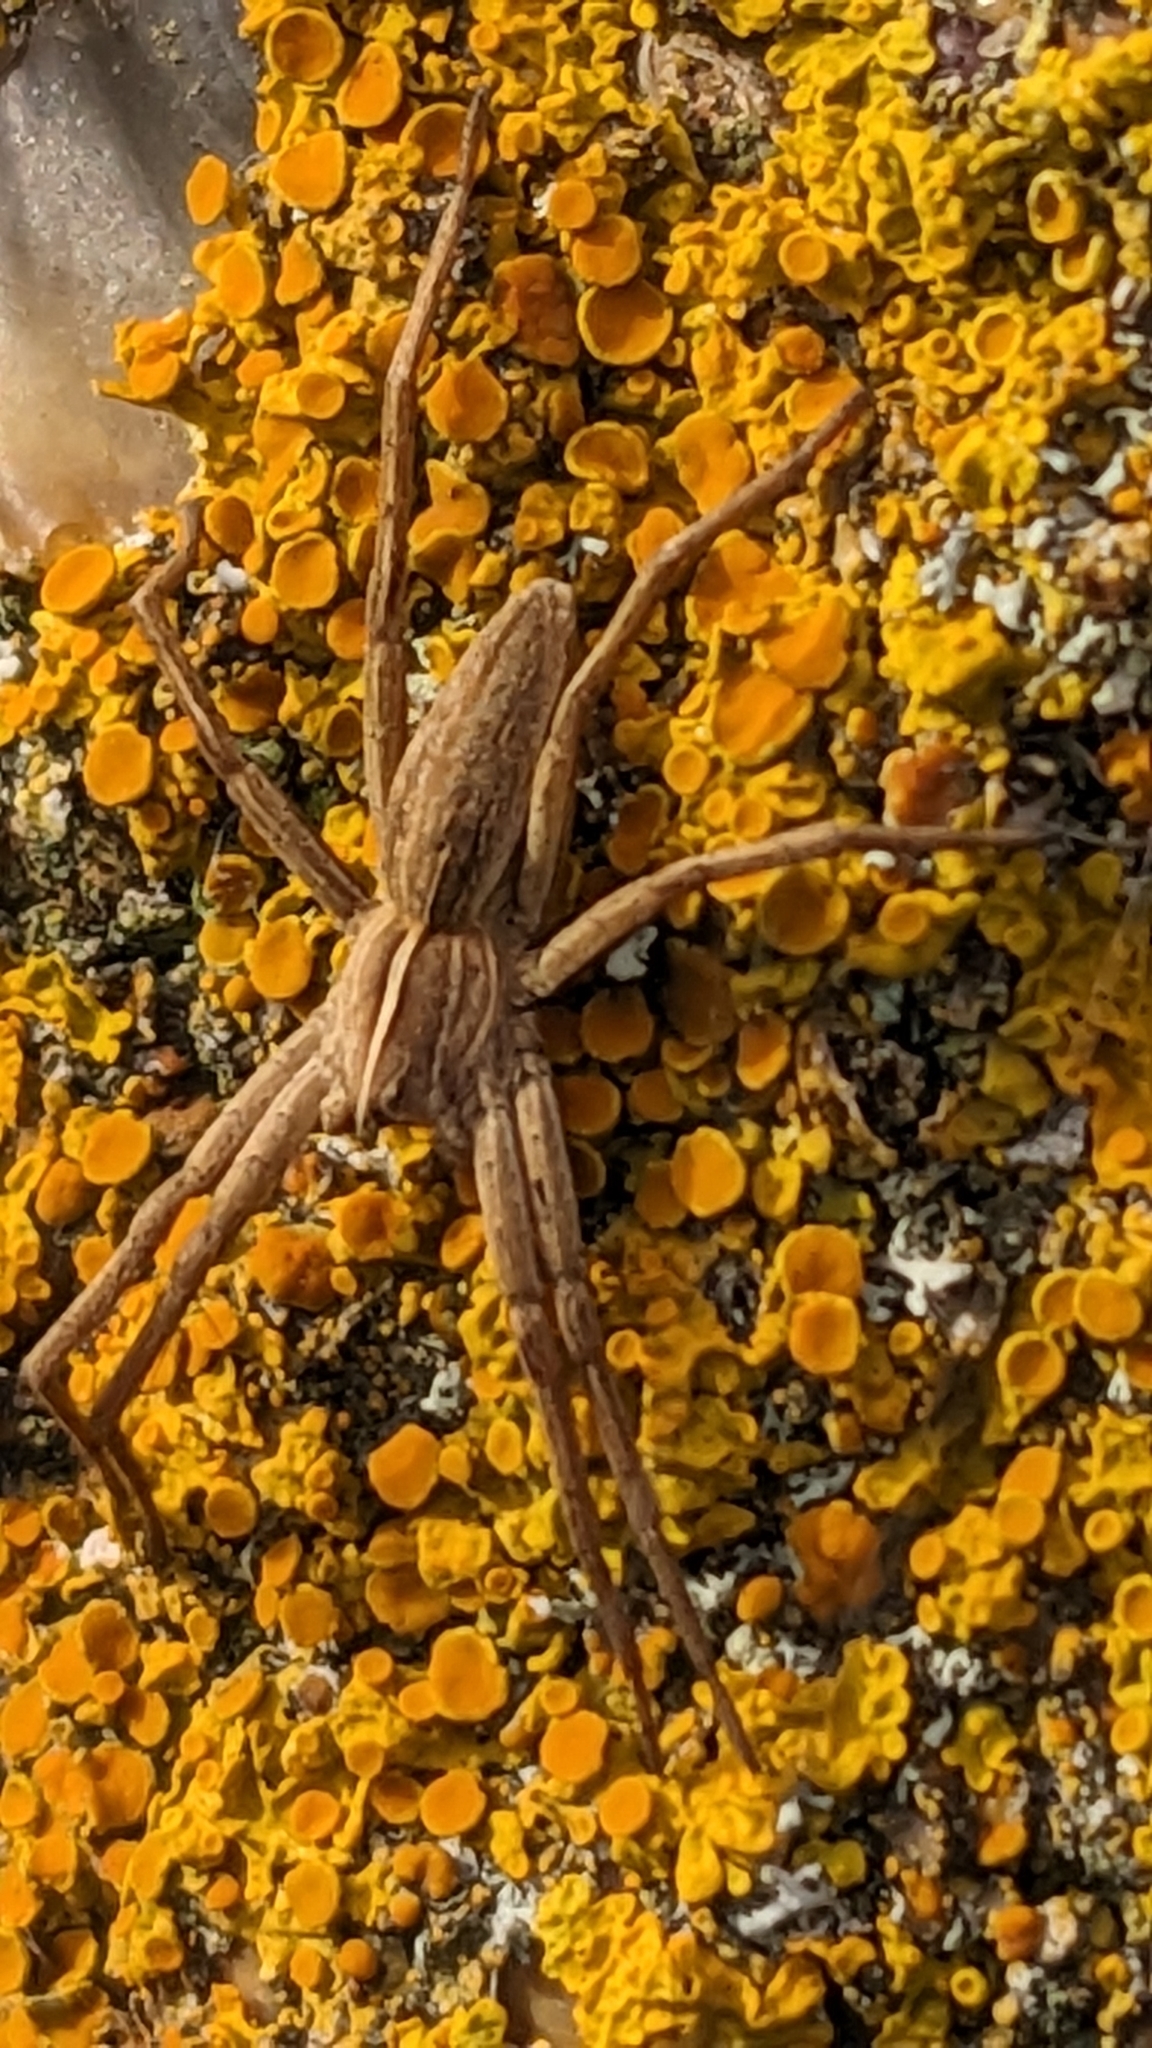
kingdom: Animalia
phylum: Arthropoda
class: Arachnida
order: Araneae
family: Pisauridae
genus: Pisaura
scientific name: Pisaura mirabilis
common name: Tent spider
